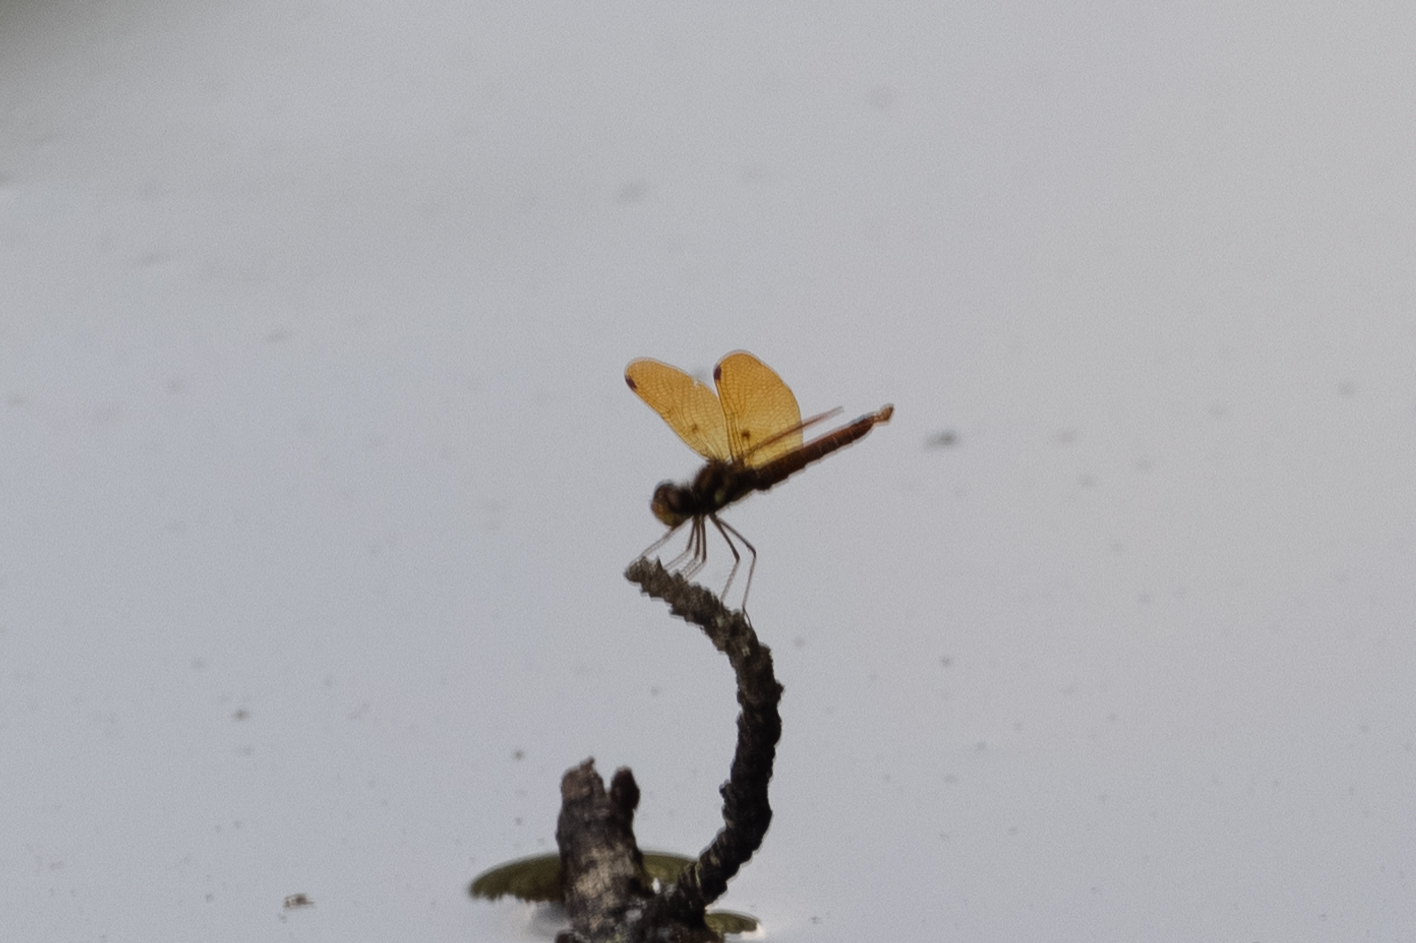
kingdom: Animalia
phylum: Arthropoda
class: Insecta
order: Odonata
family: Libellulidae
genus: Perithemis
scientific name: Perithemis tenera
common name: Eastern amberwing
